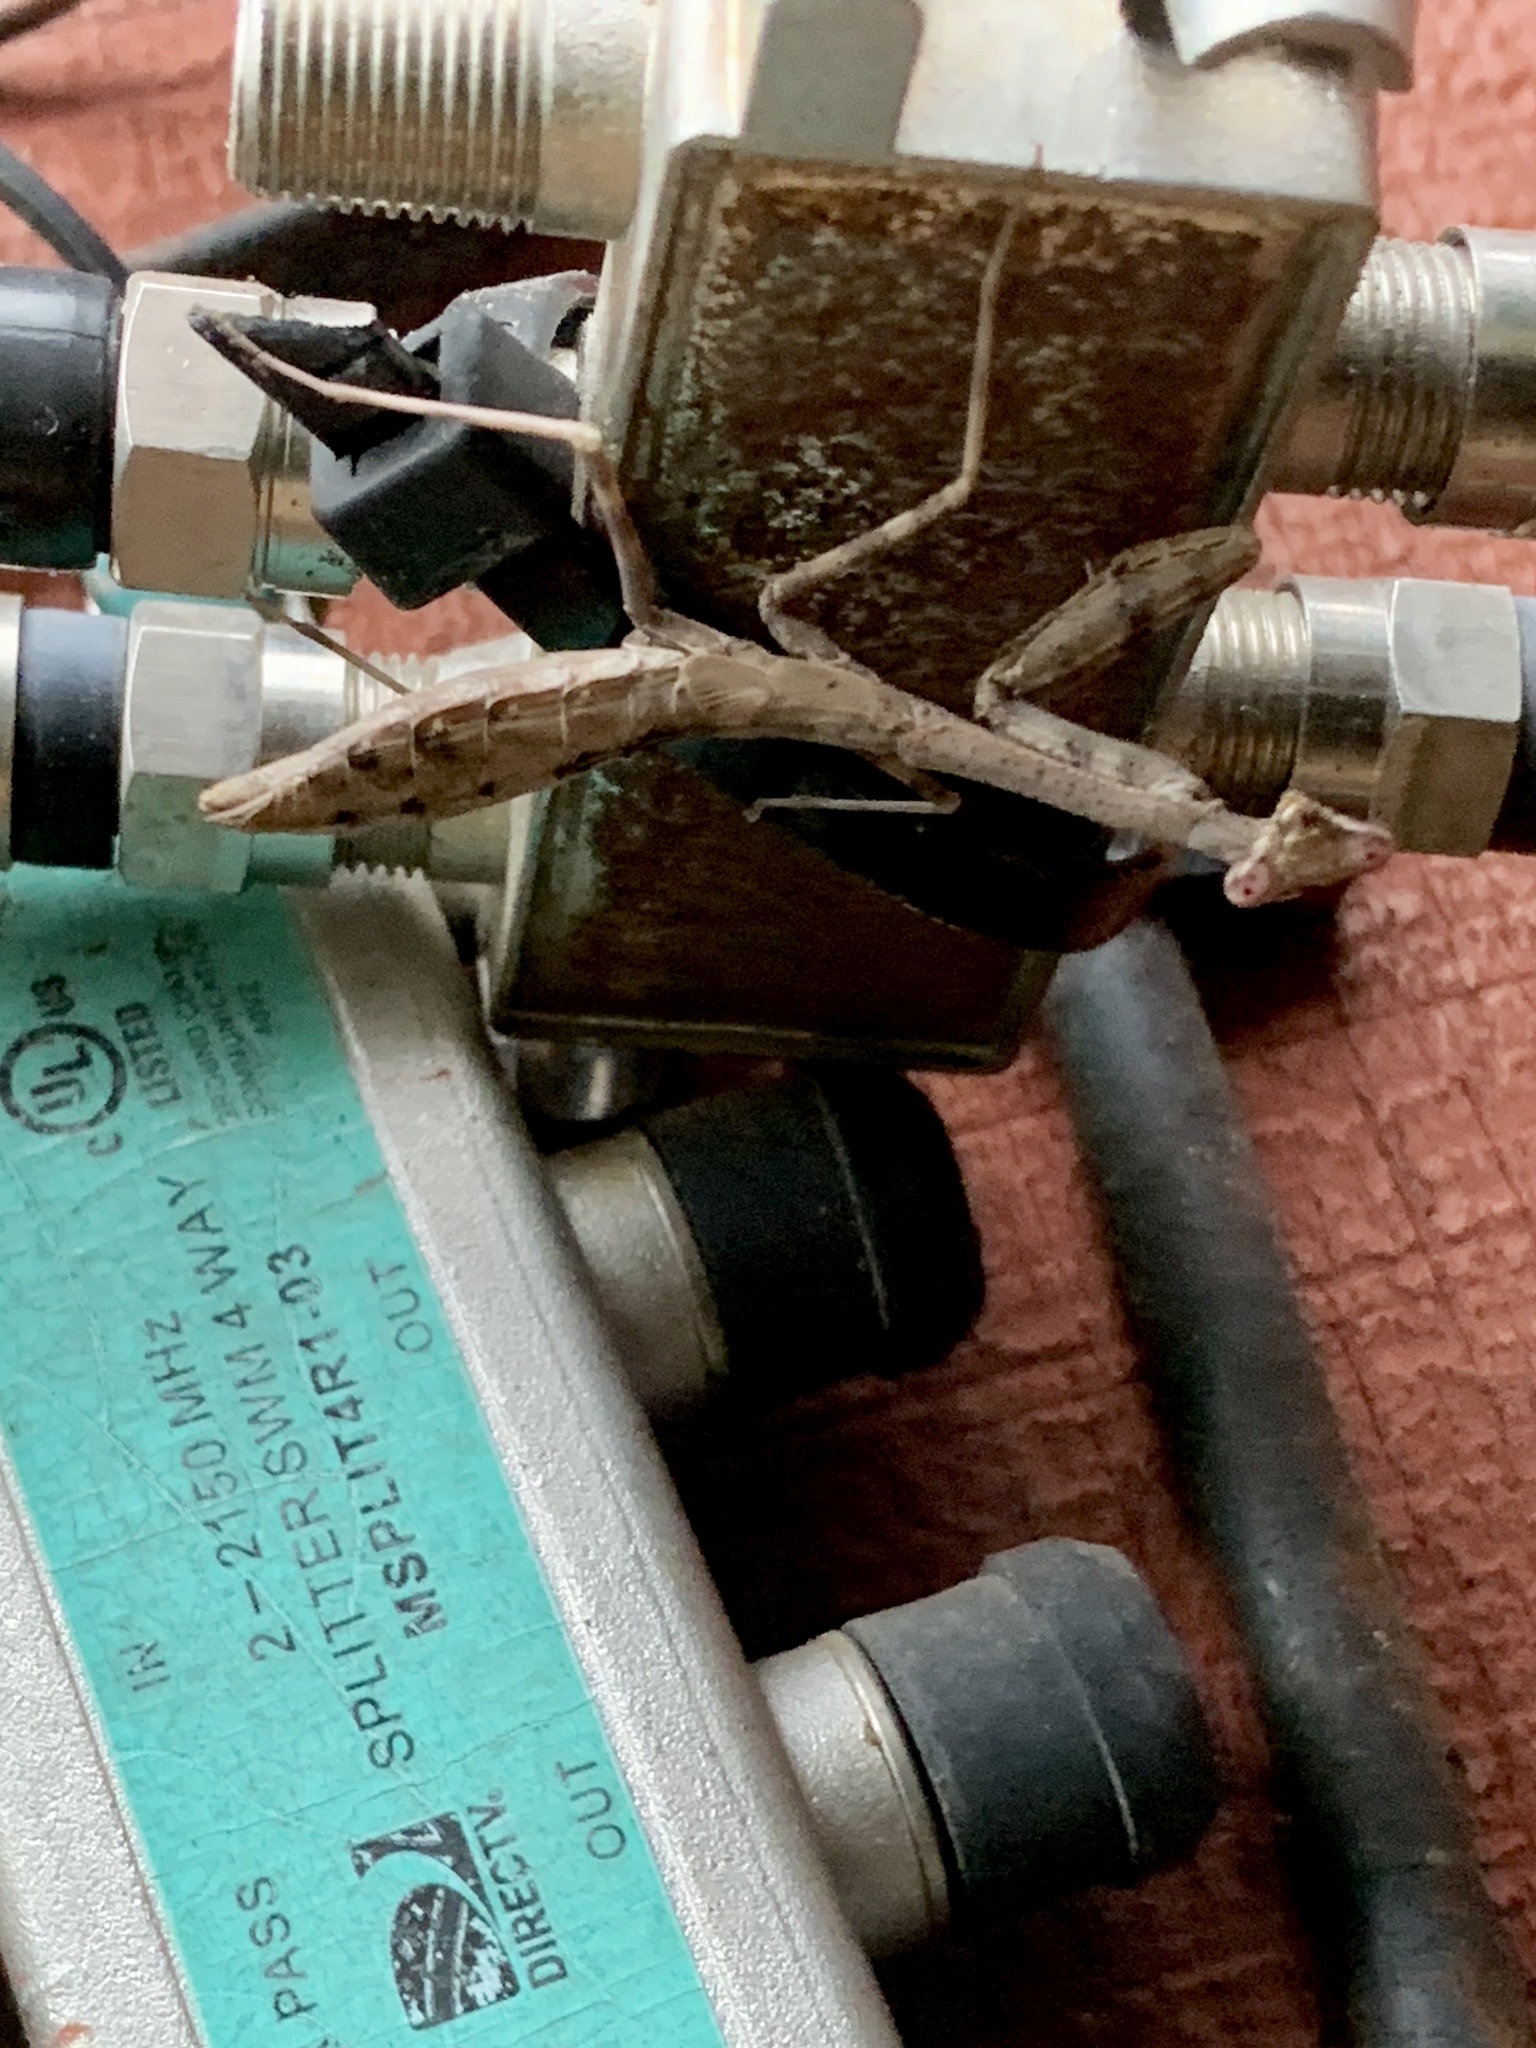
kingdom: Animalia
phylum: Arthropoda
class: Insecta
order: Mantodea
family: Mantidae
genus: Stagmomantis
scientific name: Stagmomantis carolina
